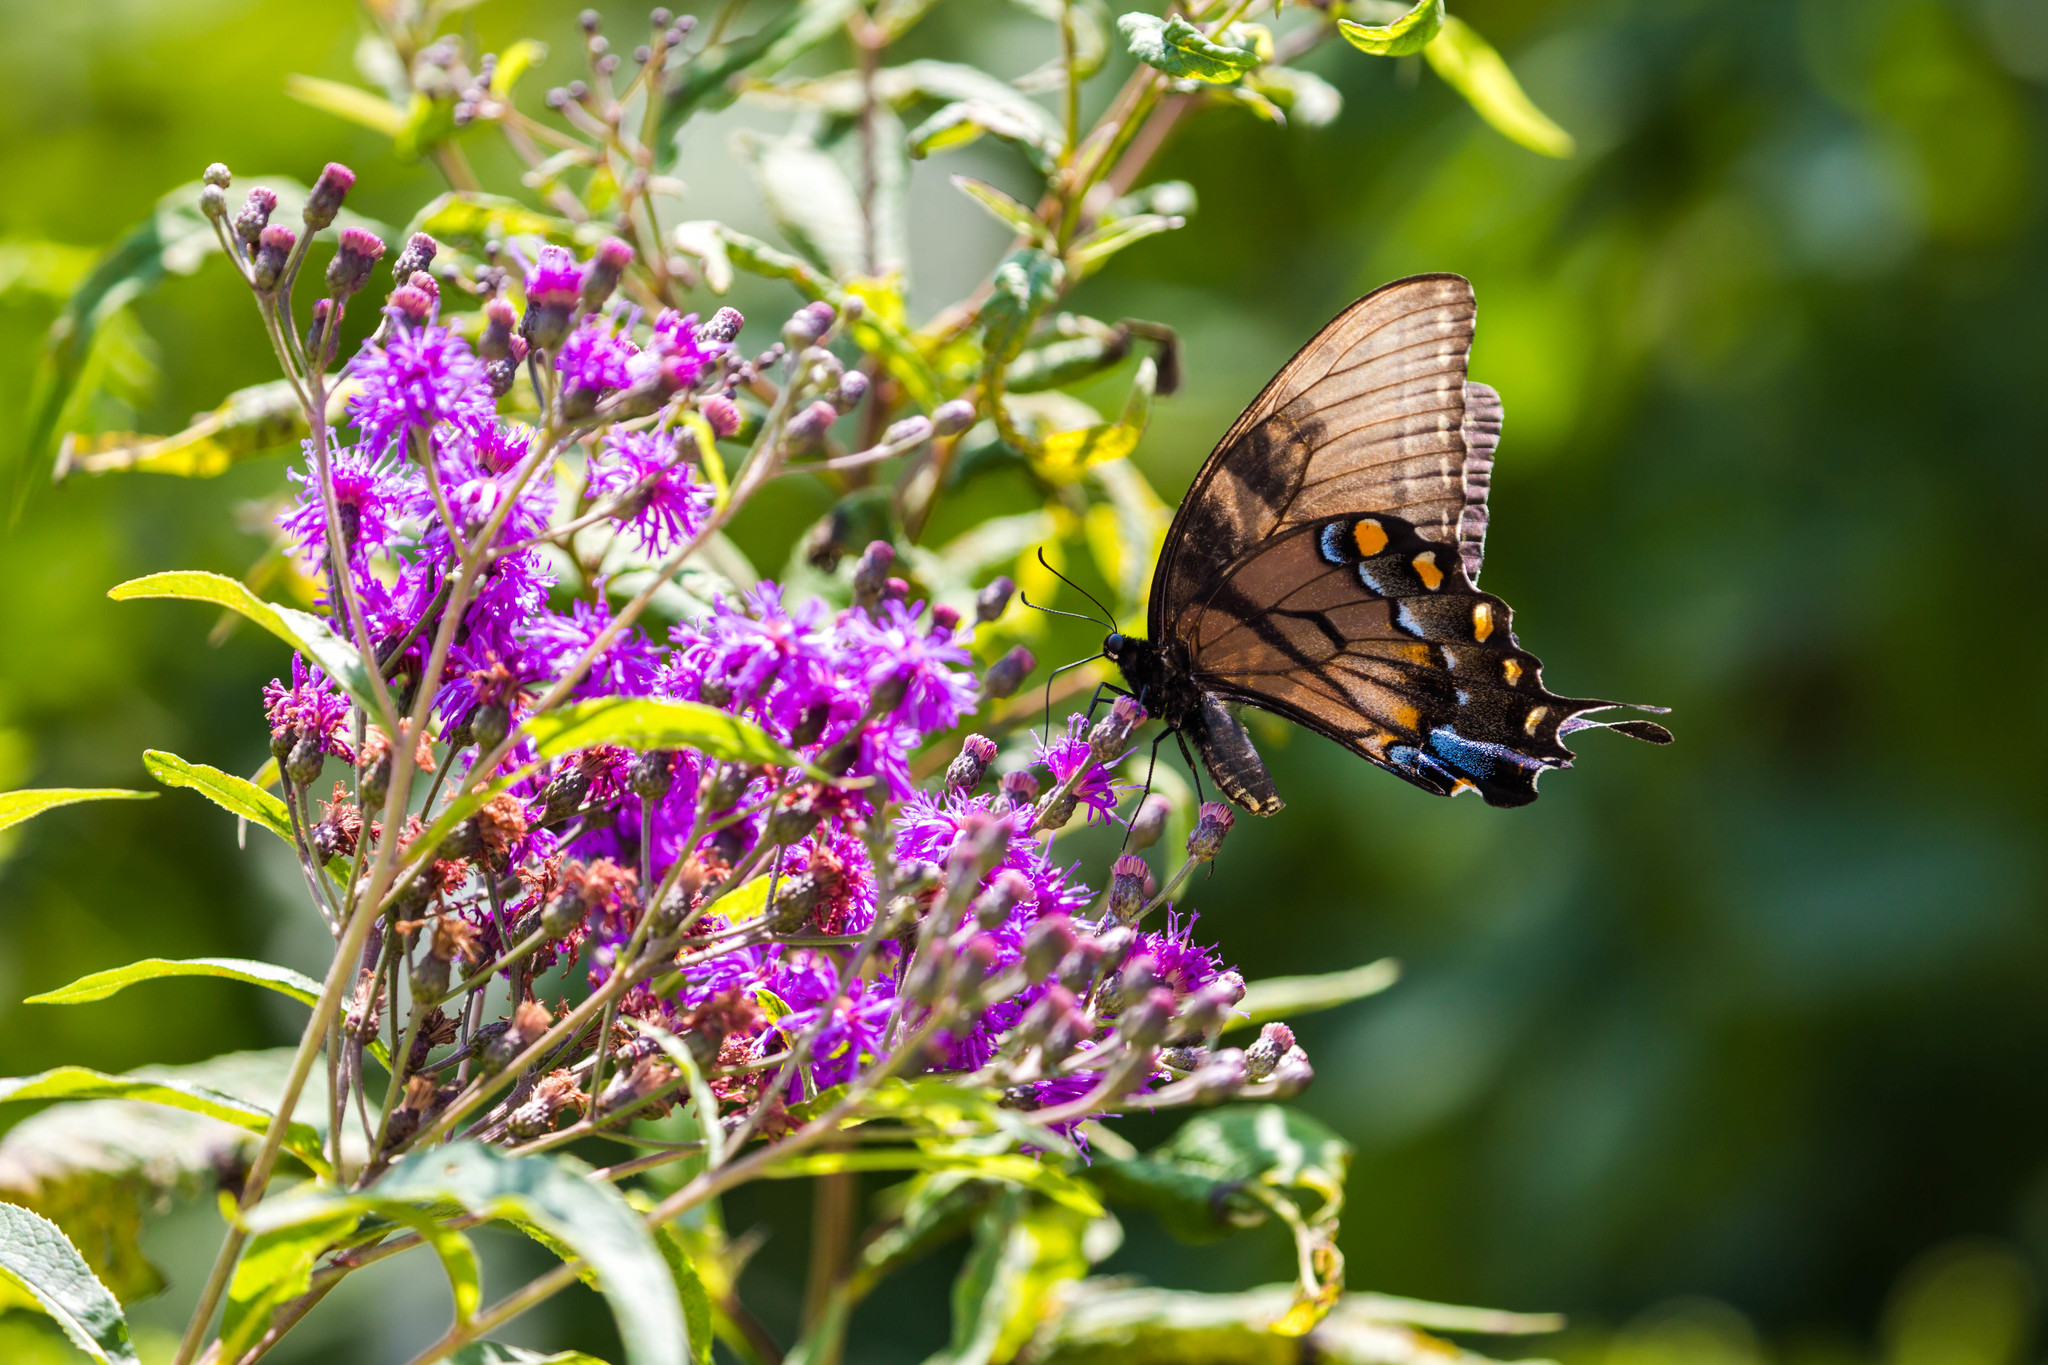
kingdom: Animalia
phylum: Arthropoda
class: Insecta
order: Lepidoptera
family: Papilionidae
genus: Papilio
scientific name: Papilio glaucus
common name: Tiger swallowtail
